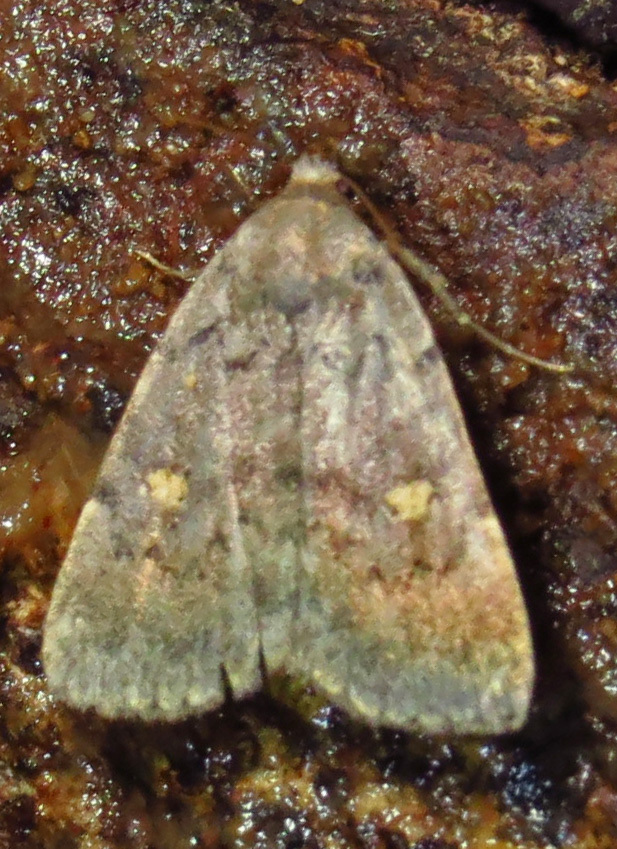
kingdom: Animalia
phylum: Arthropoda
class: Insecta
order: Lepidoptera
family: Erebidae
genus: Idia
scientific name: Idia aemula
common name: Common idia moth
